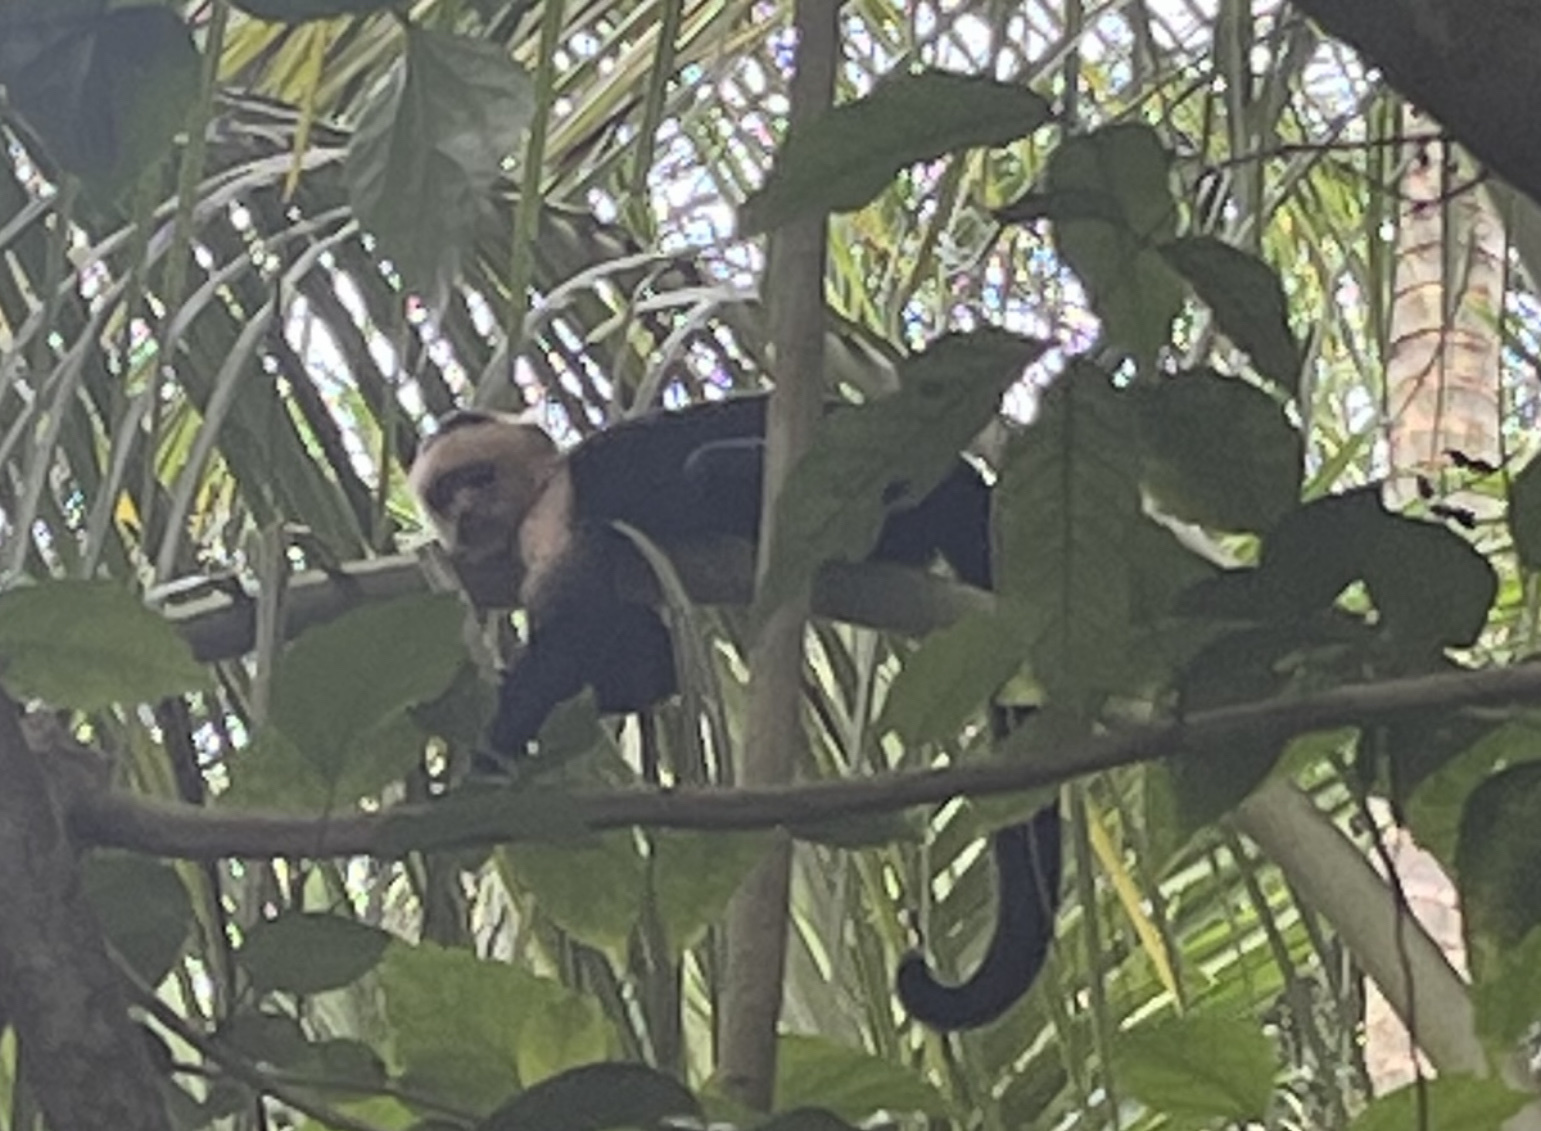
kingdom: Animalia
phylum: Chordata
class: Mammalia
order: Primates
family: Cebidae
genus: Cebus
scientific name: Cebus imitator
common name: Panamanian white-faced capuchin
